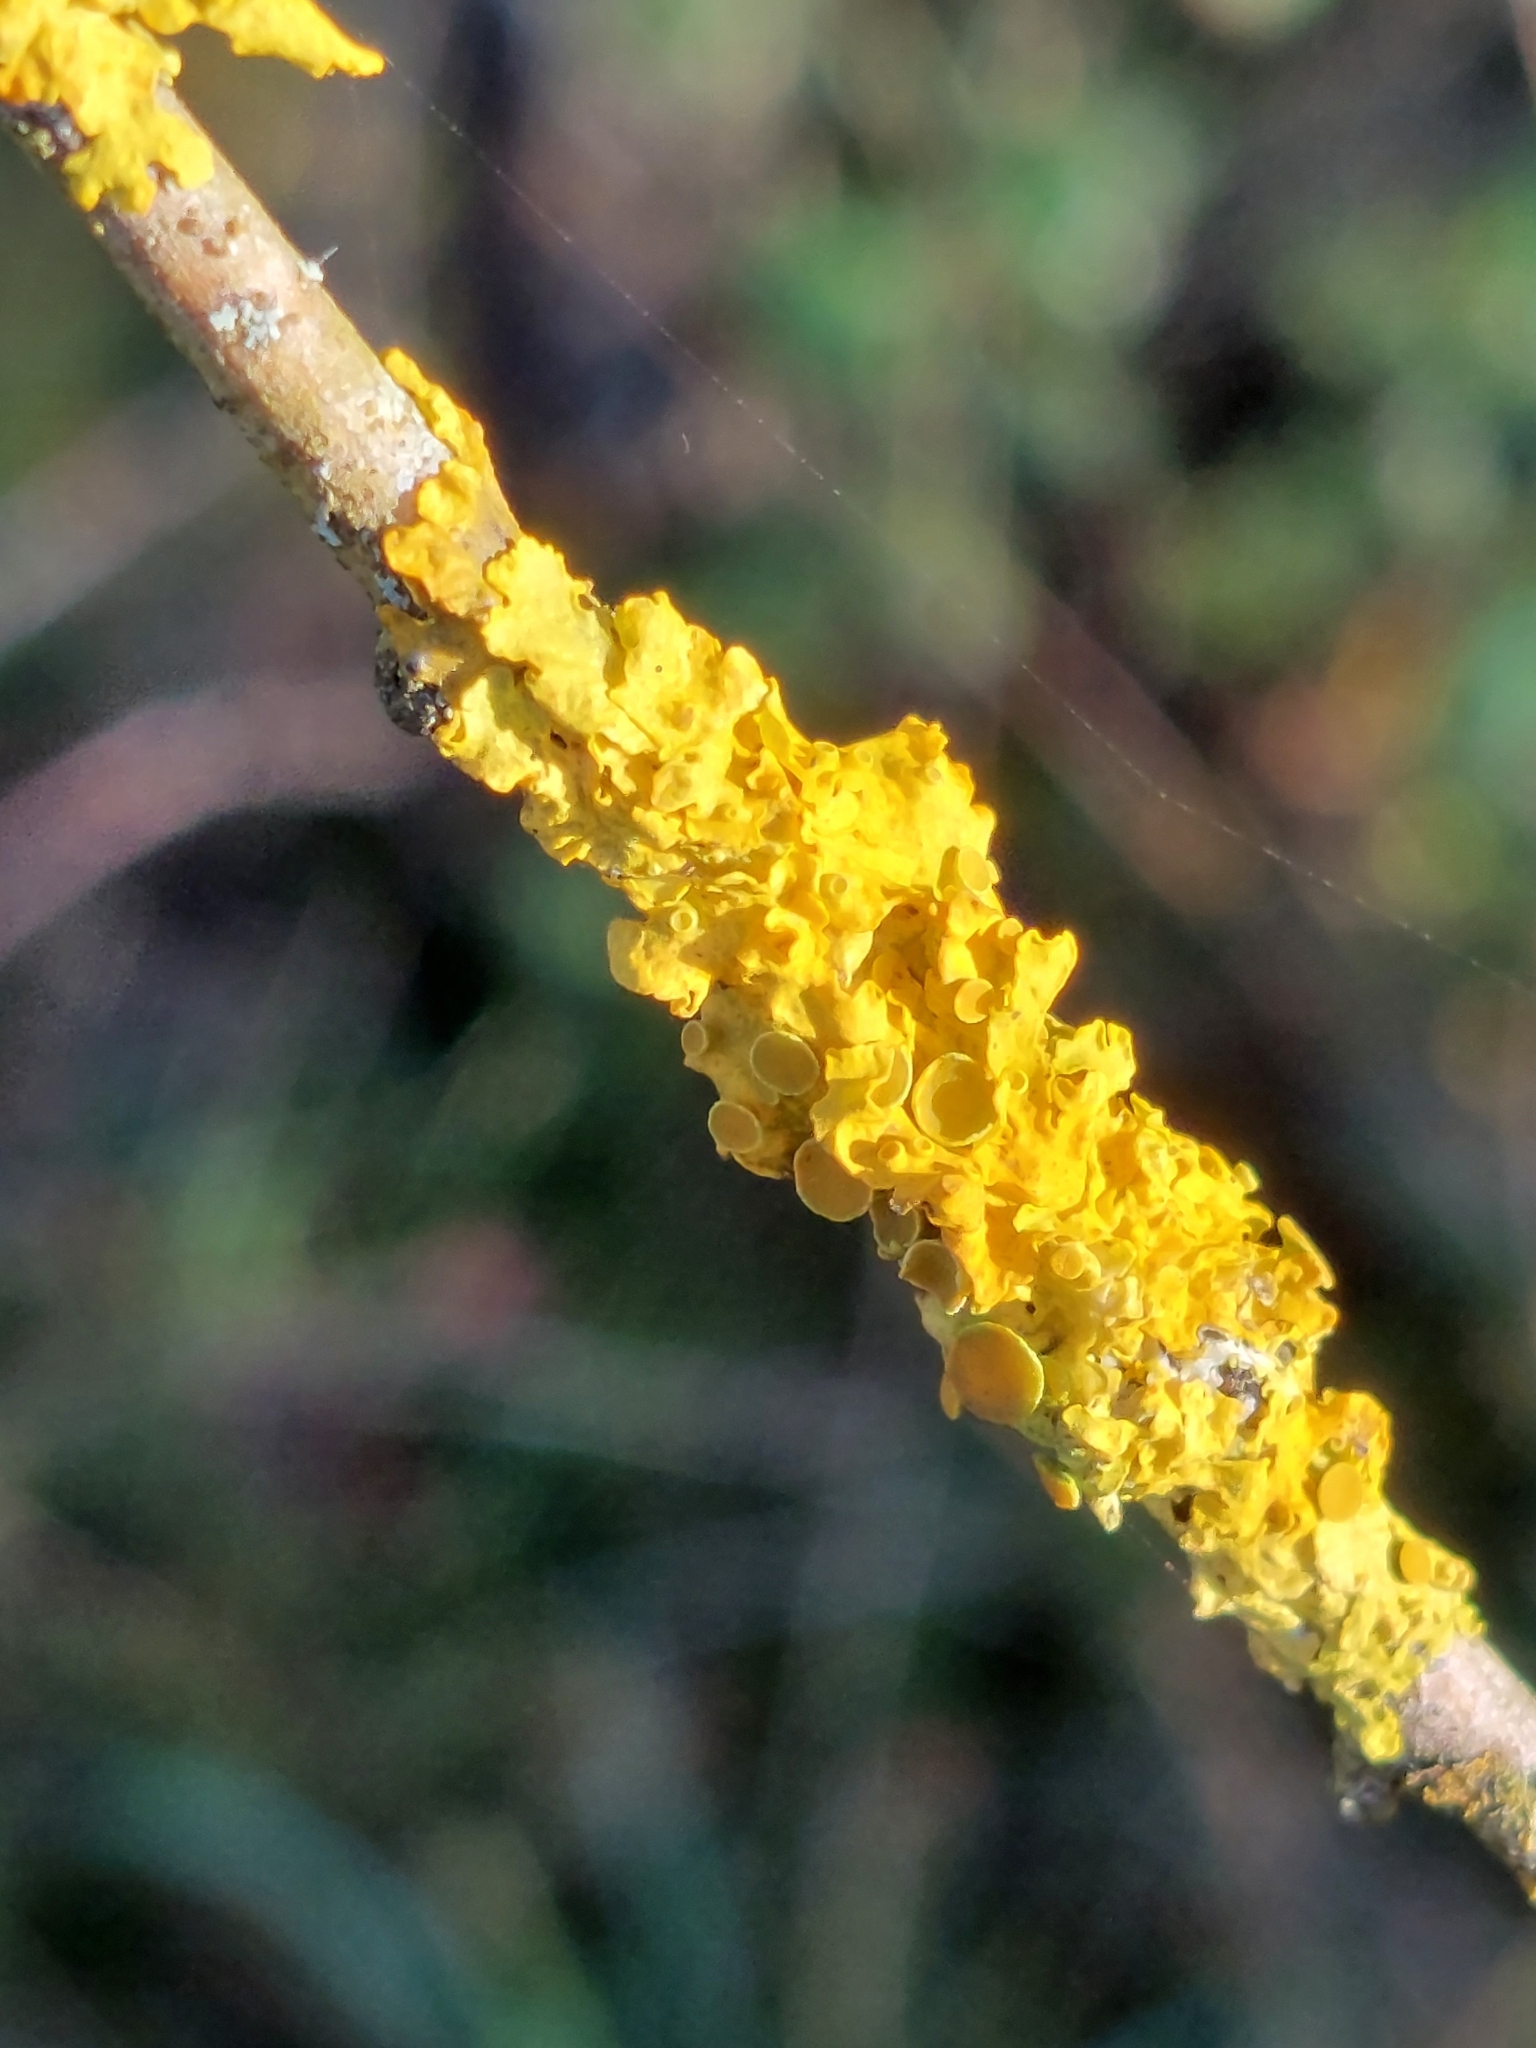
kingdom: Fungi
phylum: Ascomycota
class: Lecanoromycetes
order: Teloschistales
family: Teloschistaceae
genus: Xanthoria
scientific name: Xanthoria parietina
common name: Common orange lichen
